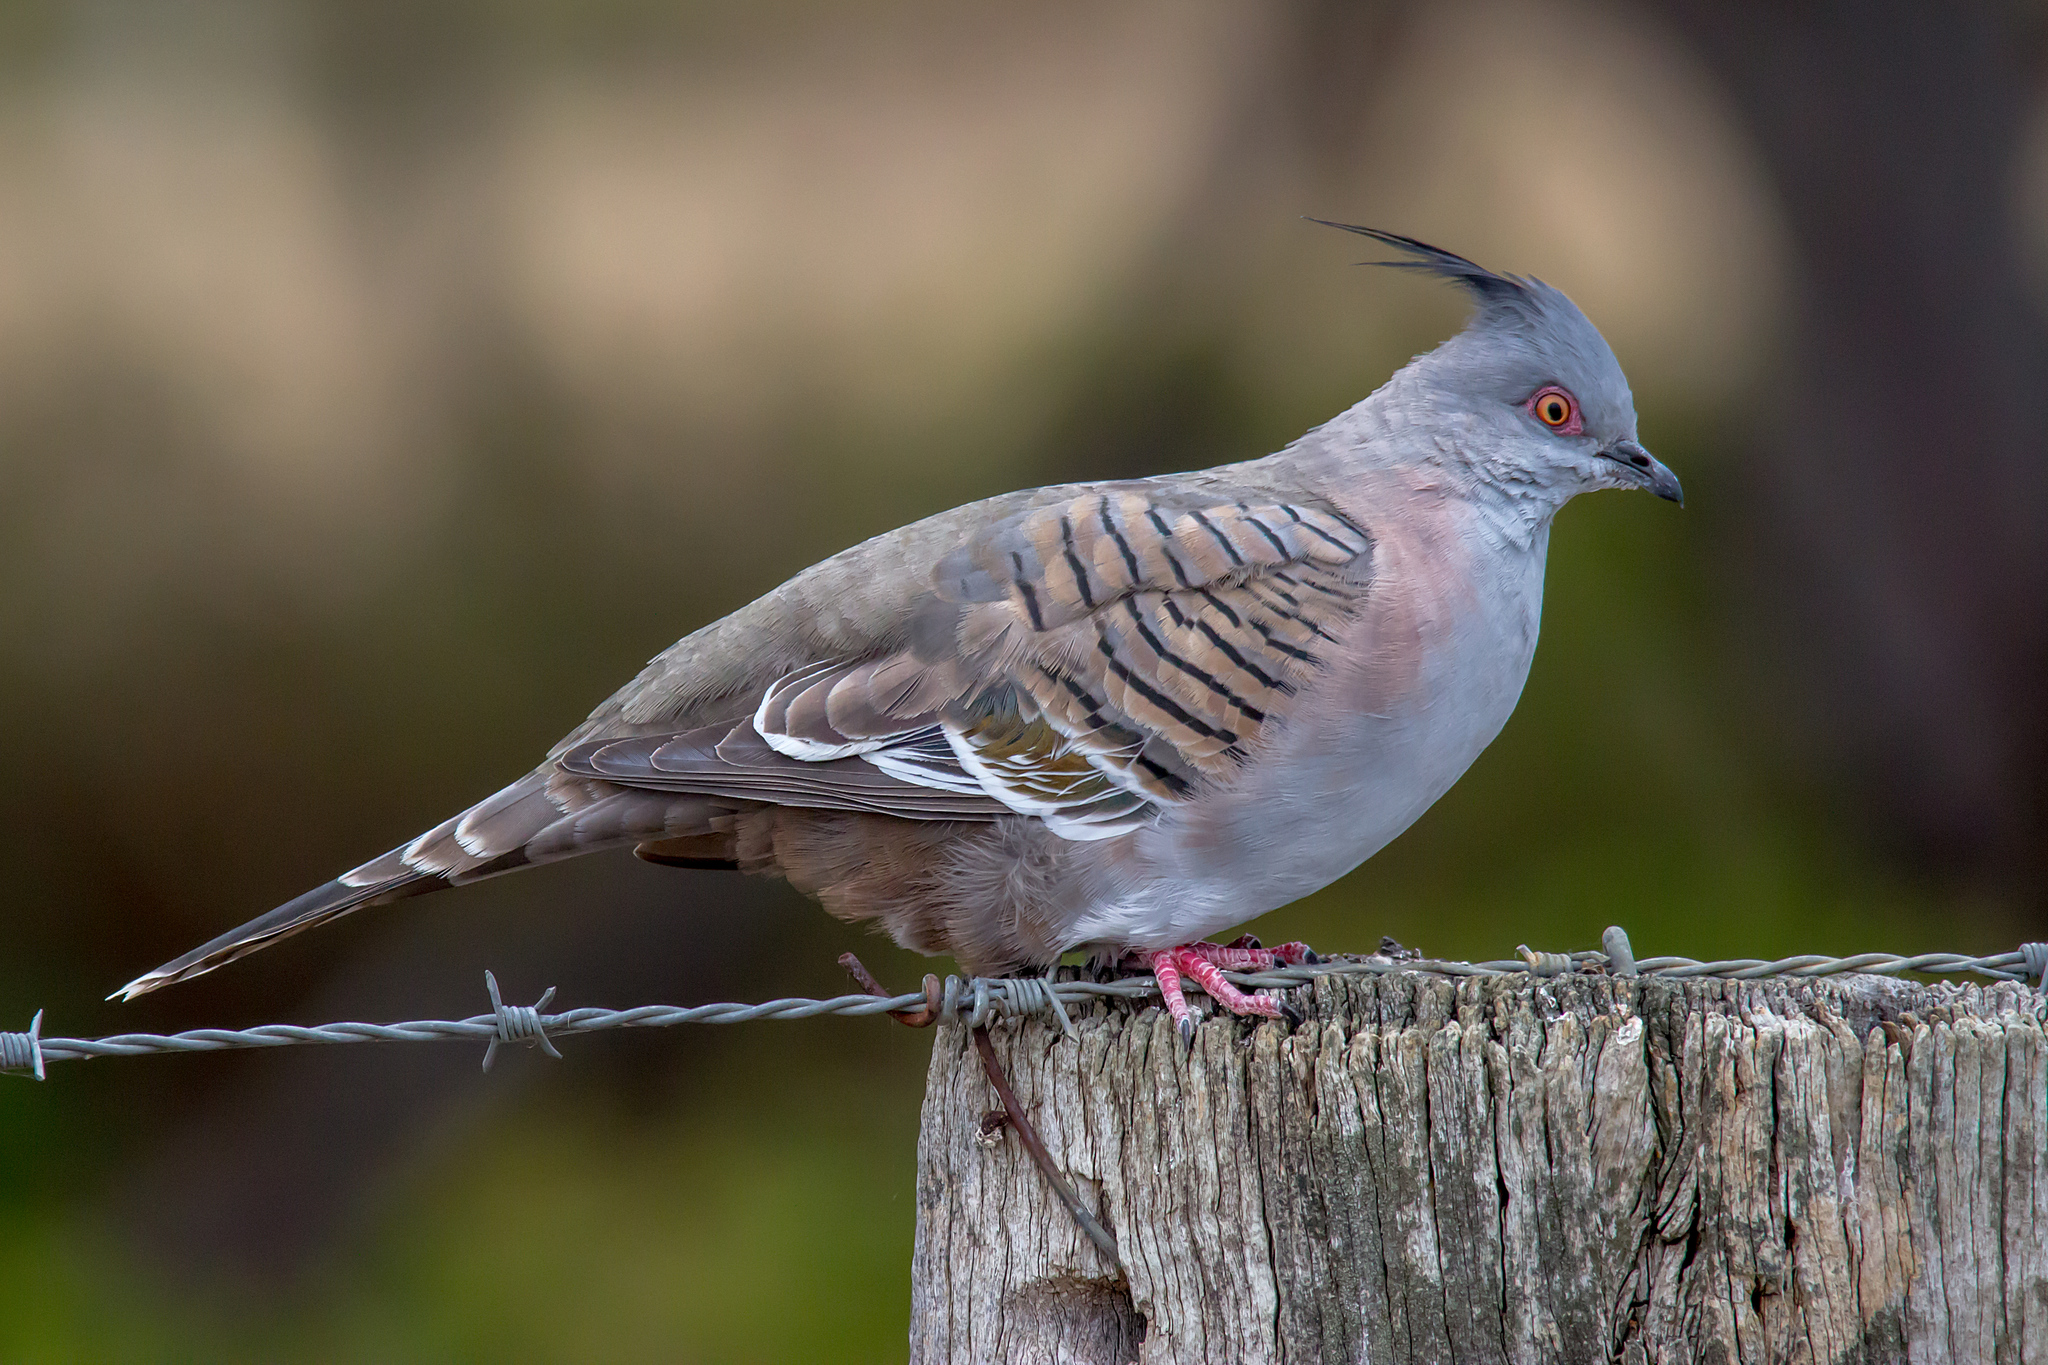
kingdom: Animalia
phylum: Chordata
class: Aves
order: Columbiformes
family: Columbidae
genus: Ocyphaps
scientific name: Ocyphaps lophotes
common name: Crested pigeon
